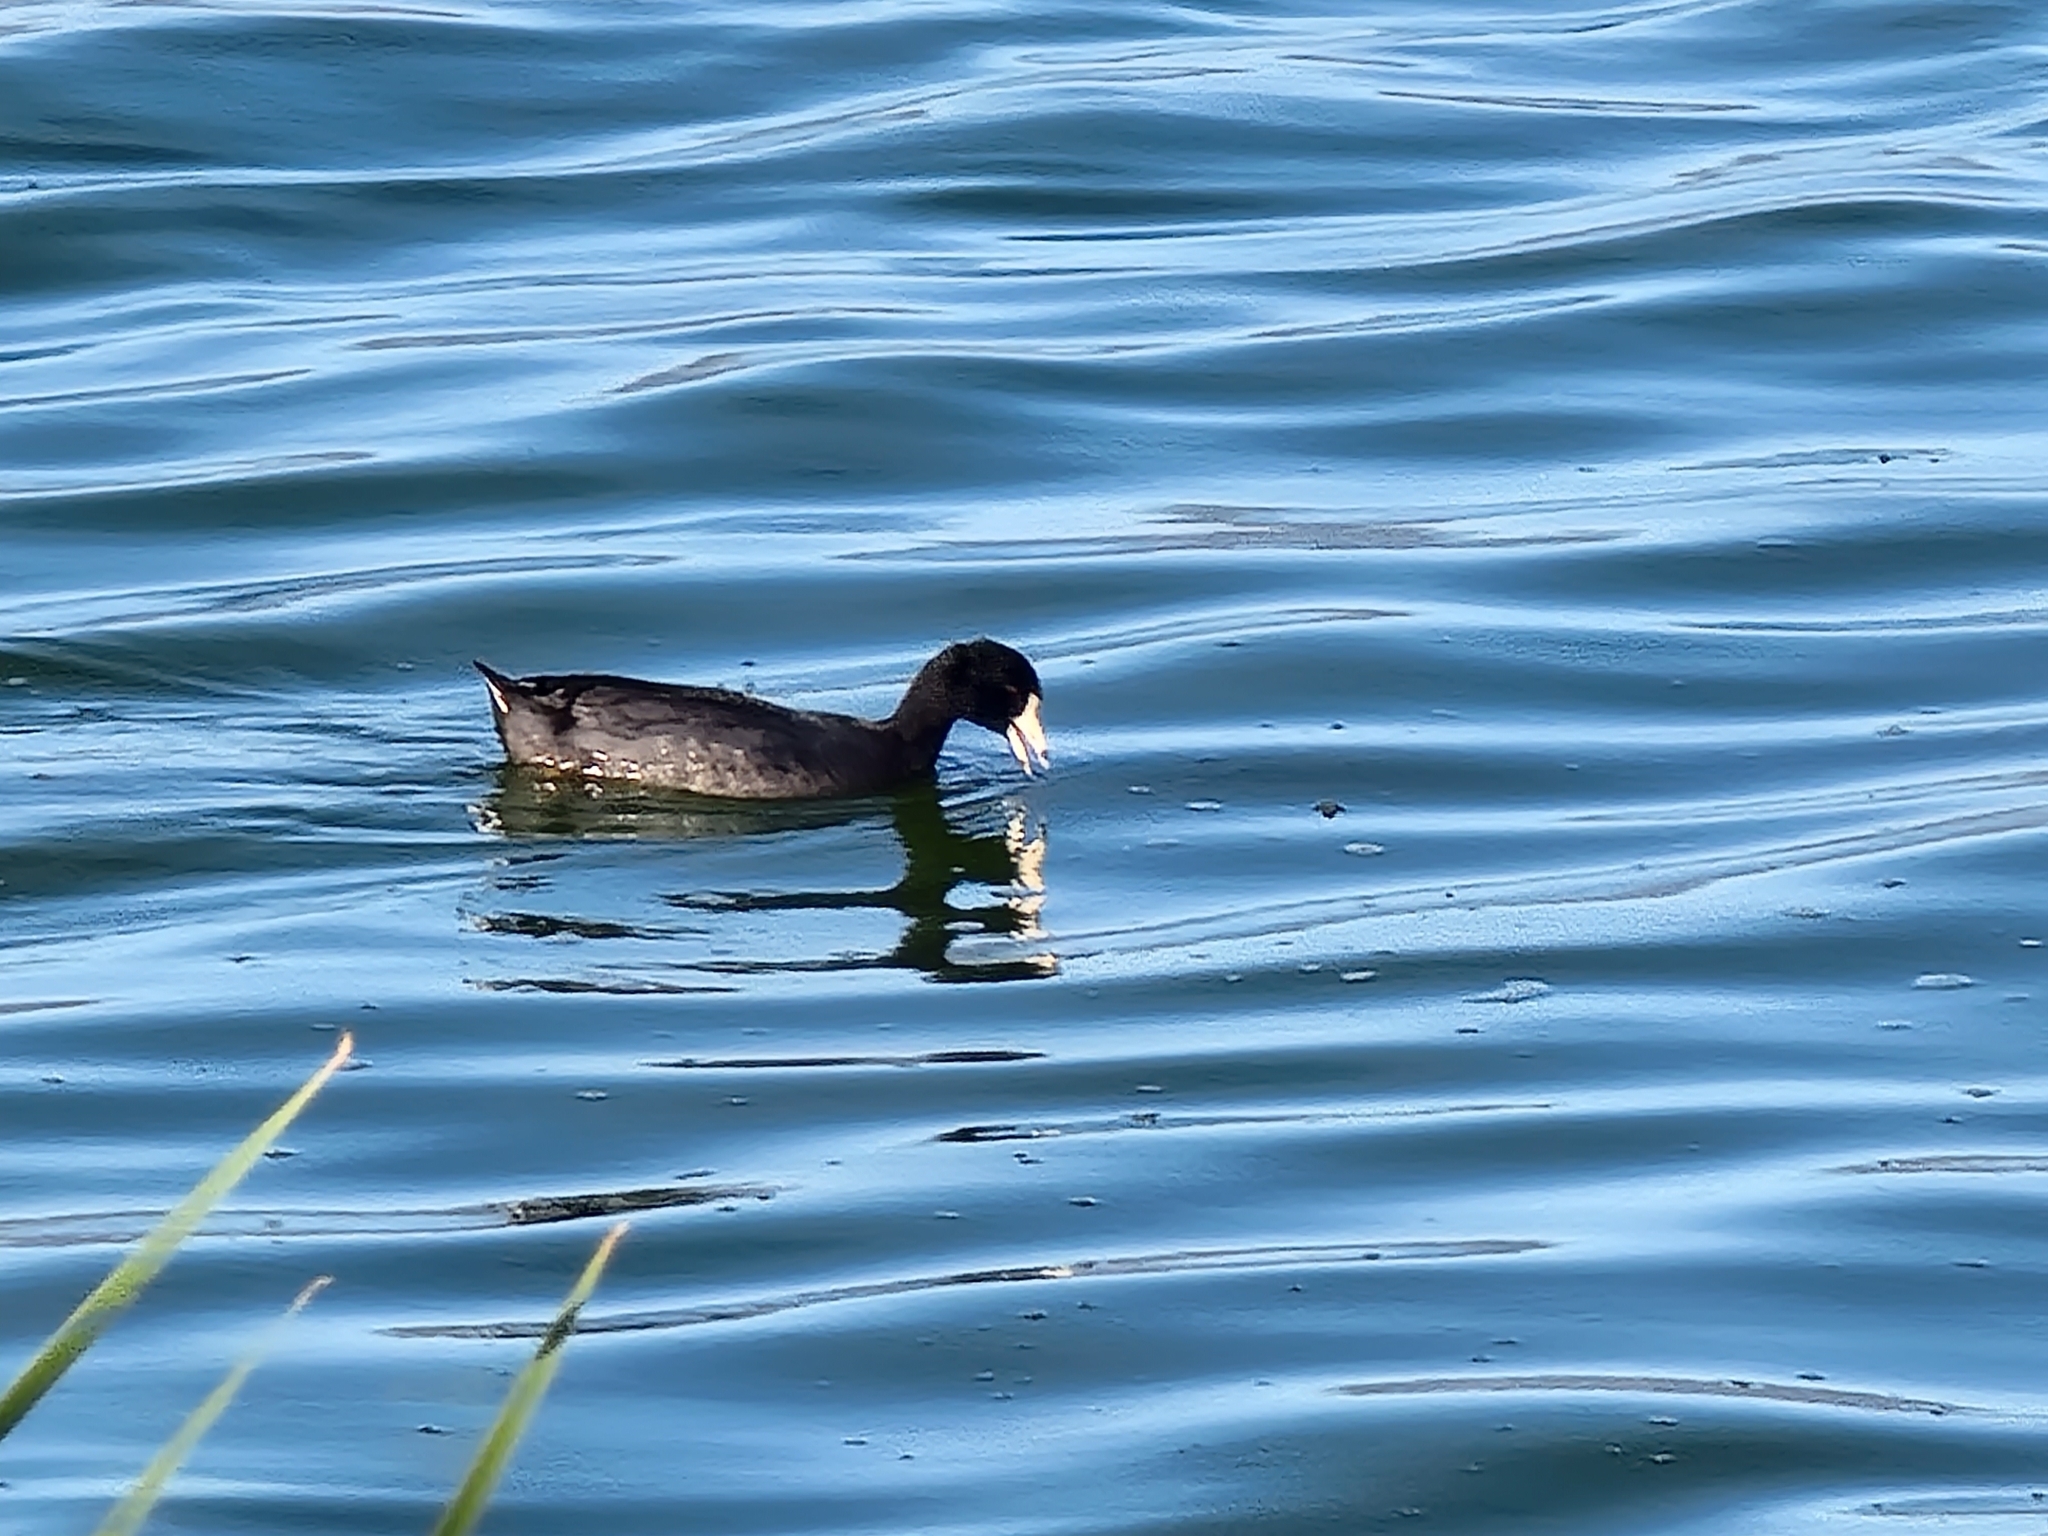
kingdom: Animalia
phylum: Chordata
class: Aves
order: Gruiformes
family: Rallidae
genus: Fulica
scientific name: Fulica americana
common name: American coot
